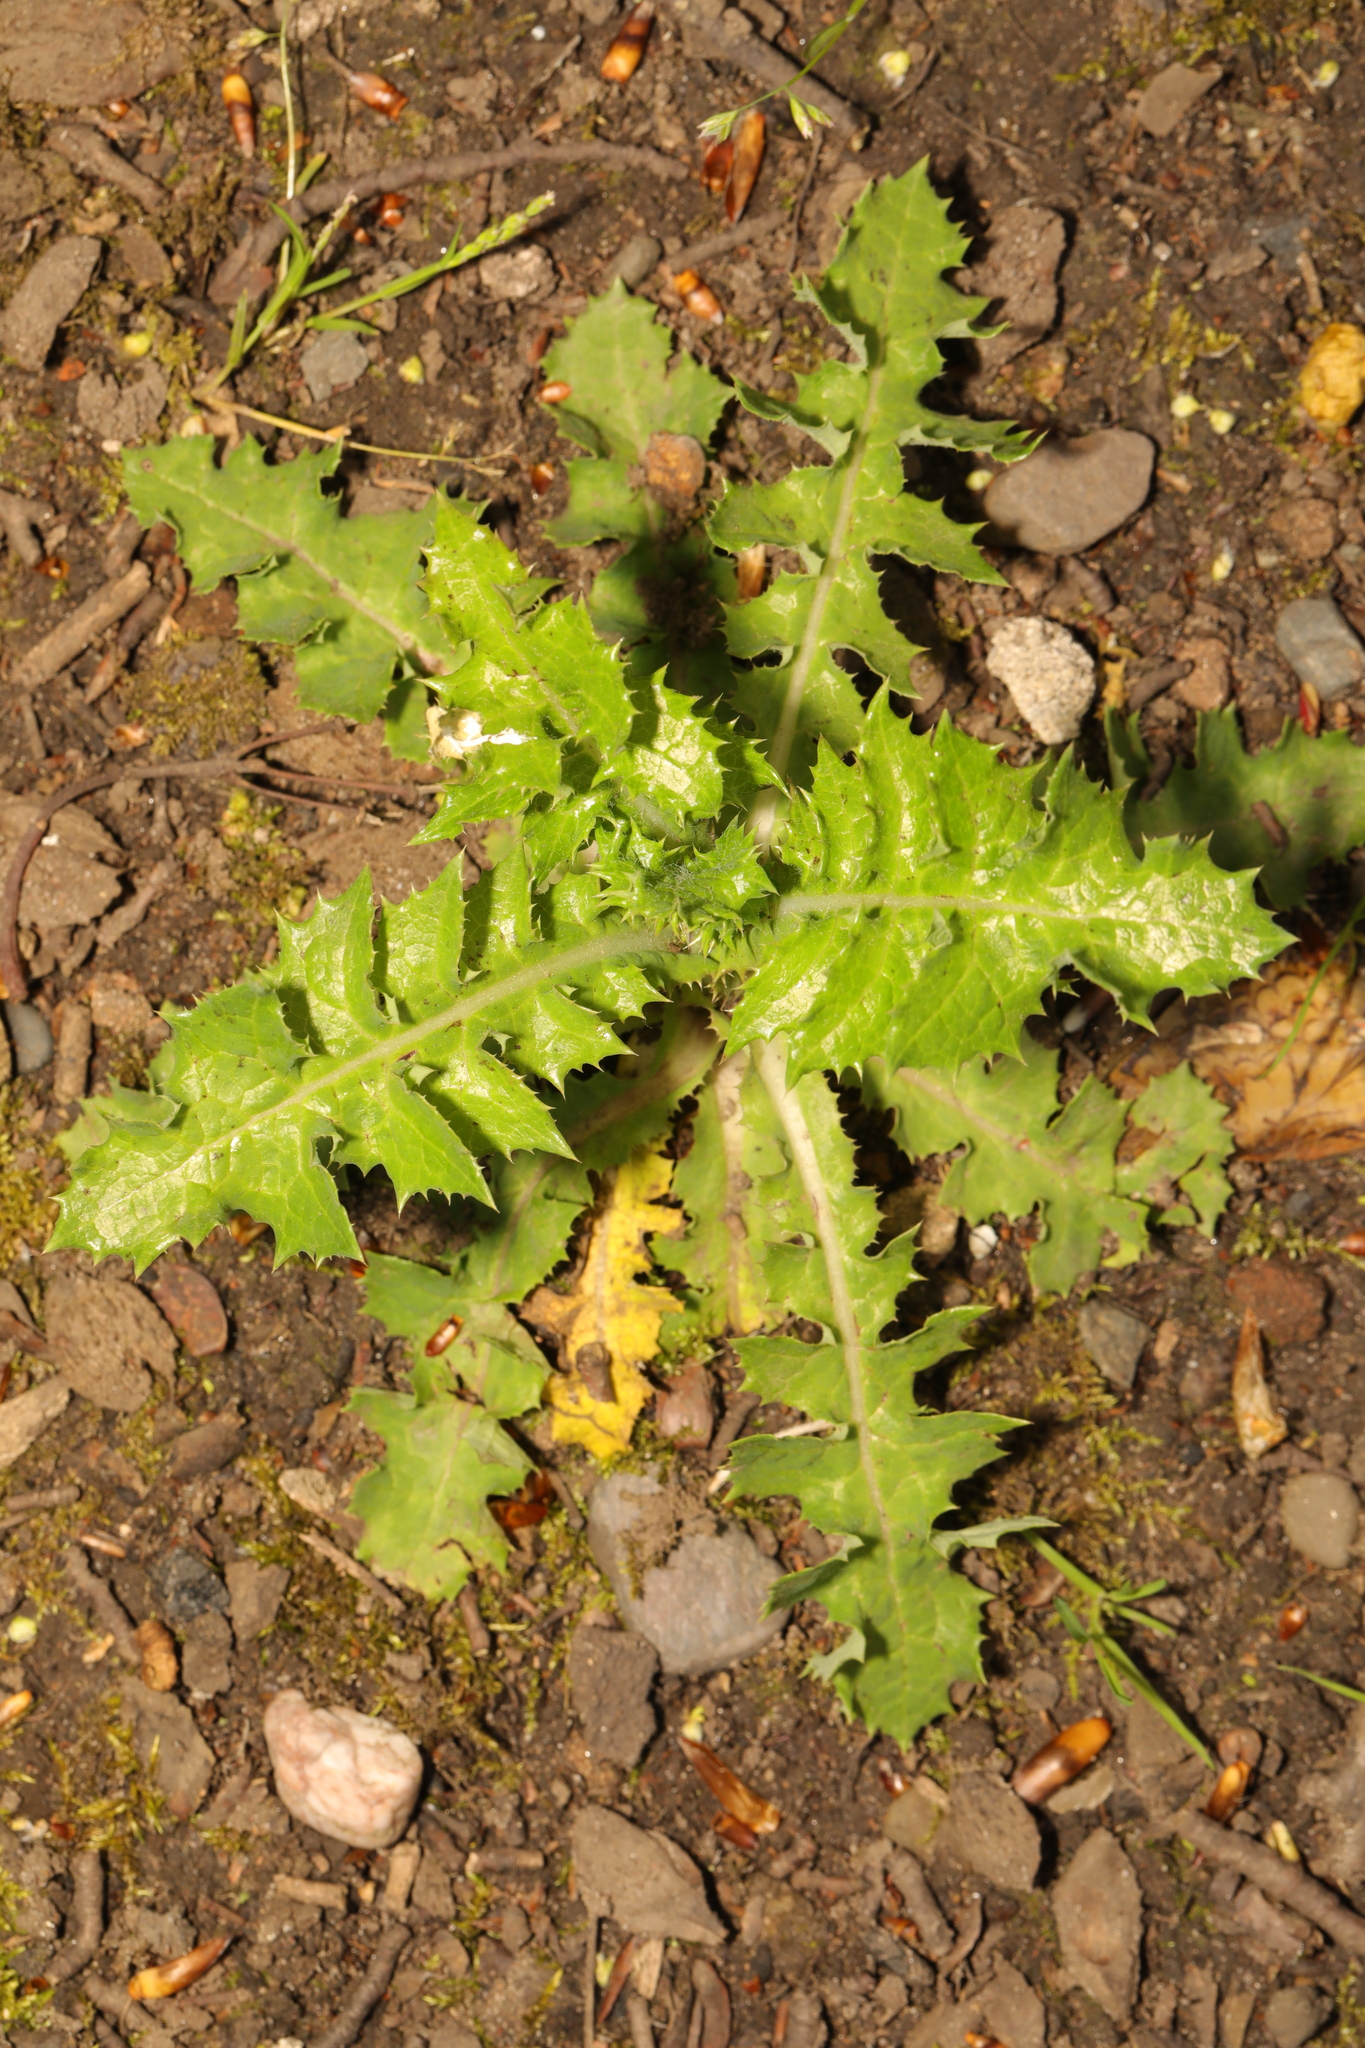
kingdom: Plantae
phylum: Tracheophyta
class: Magnoliopsida
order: Asterales
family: Asteraceae
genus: Sonchus
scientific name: Sonchus asper
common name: Prickly sow-thistle
